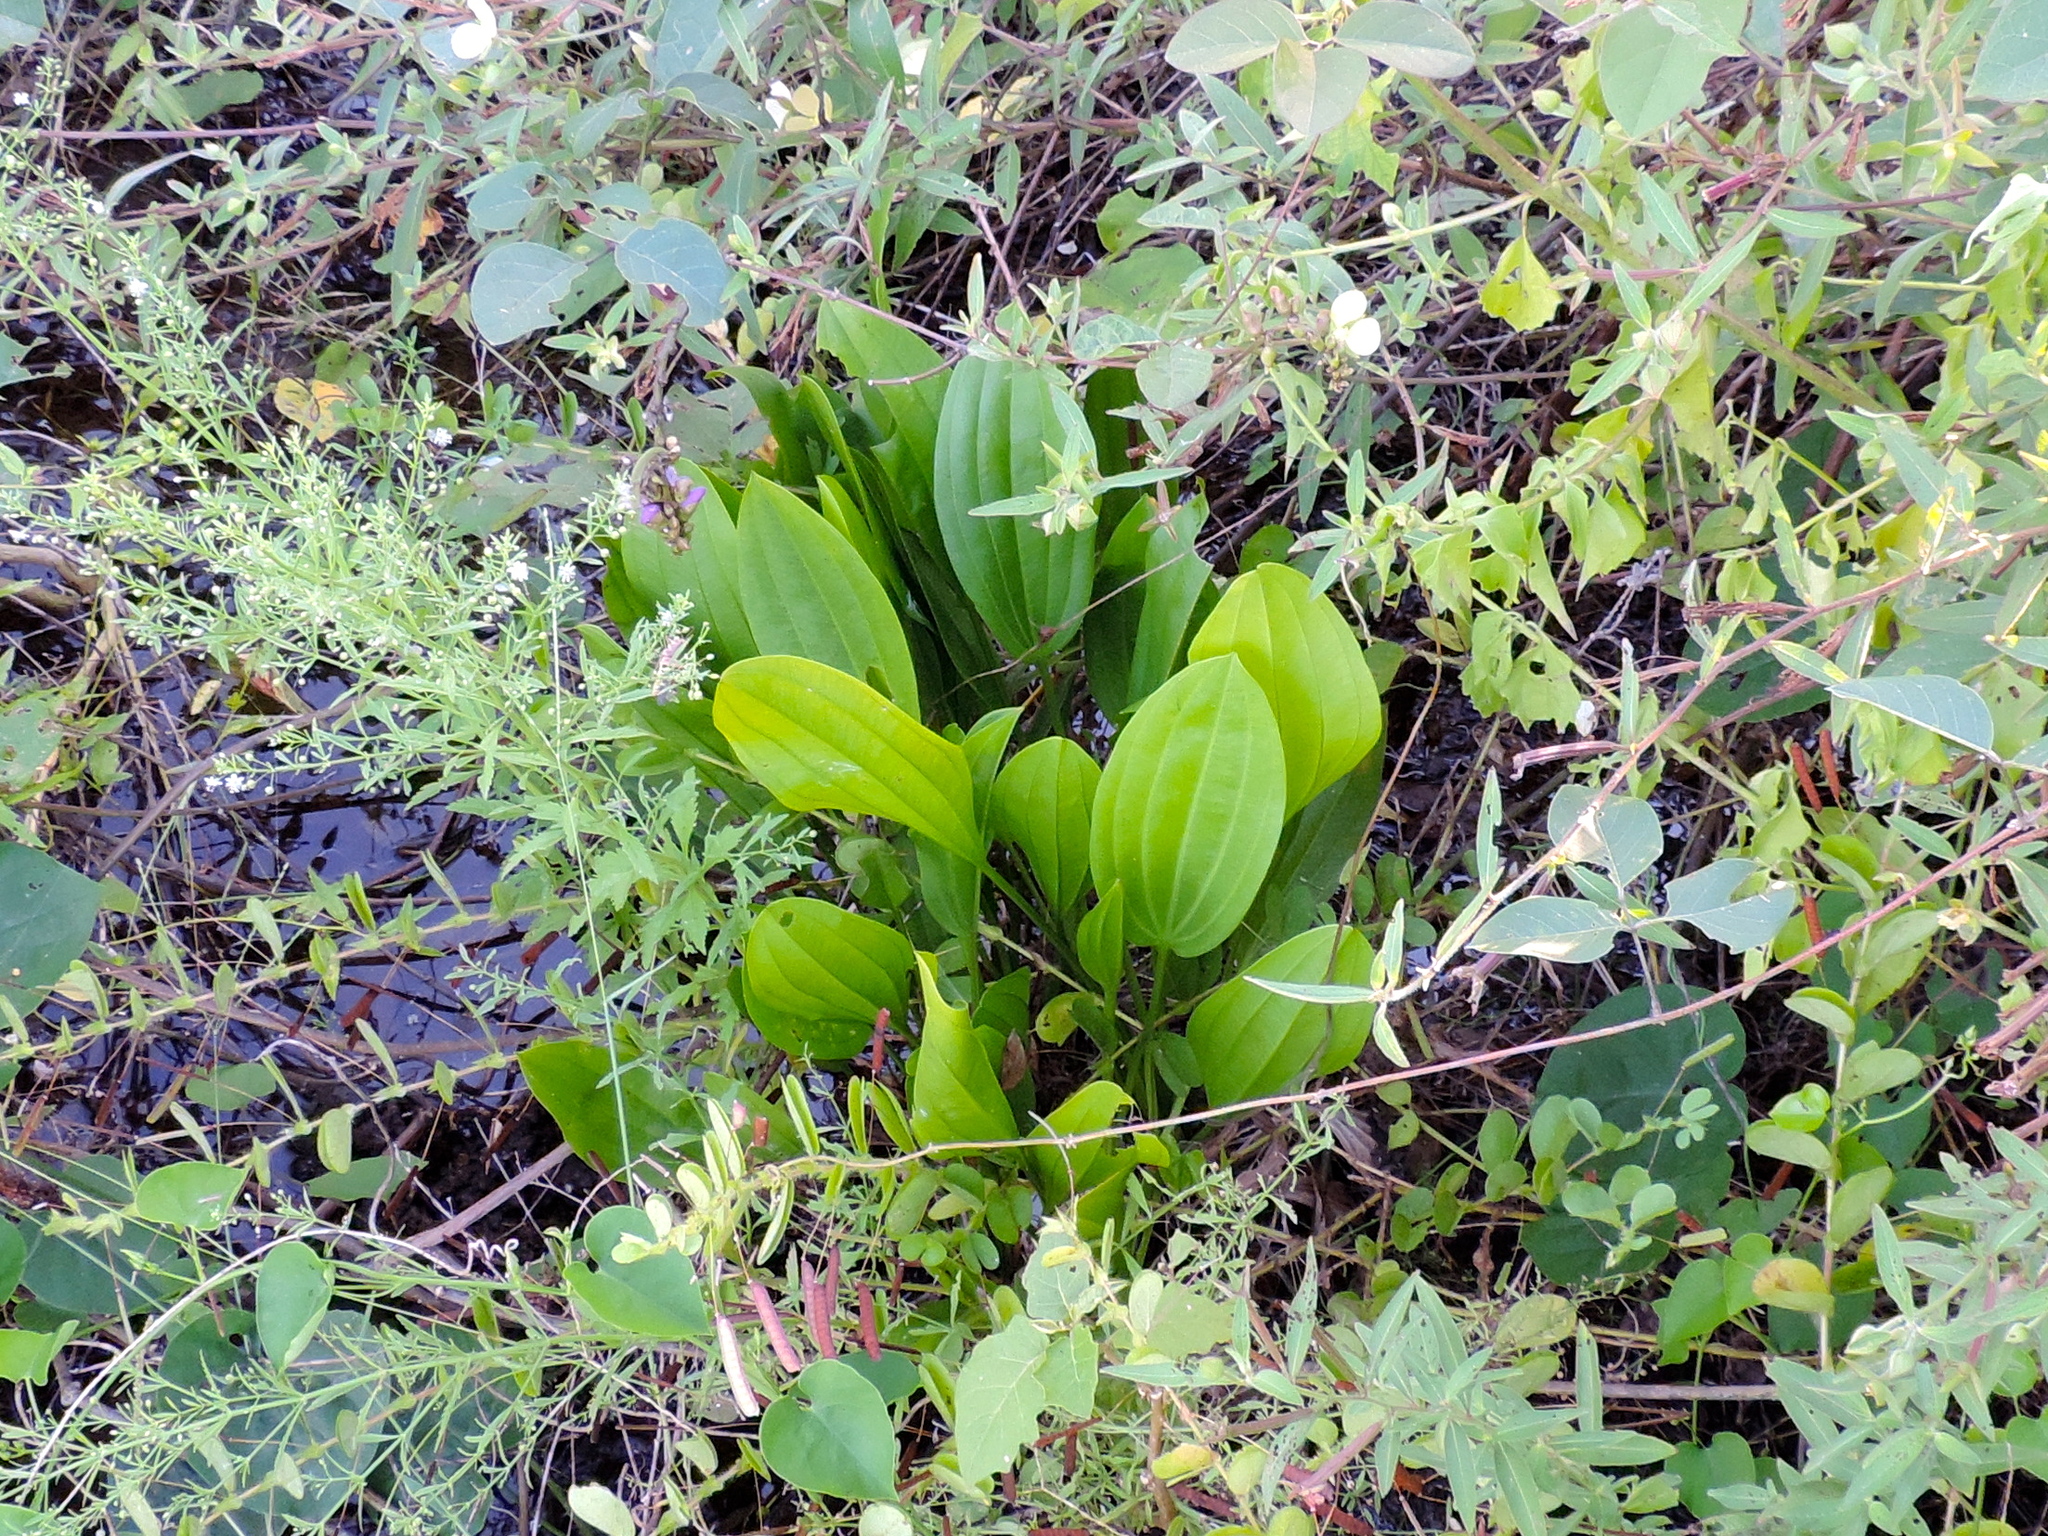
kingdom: Plantae
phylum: Tracheophyta
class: Liliopsida
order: Alismatales
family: Alismataceae
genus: Echinodorus
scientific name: Echinodorus
